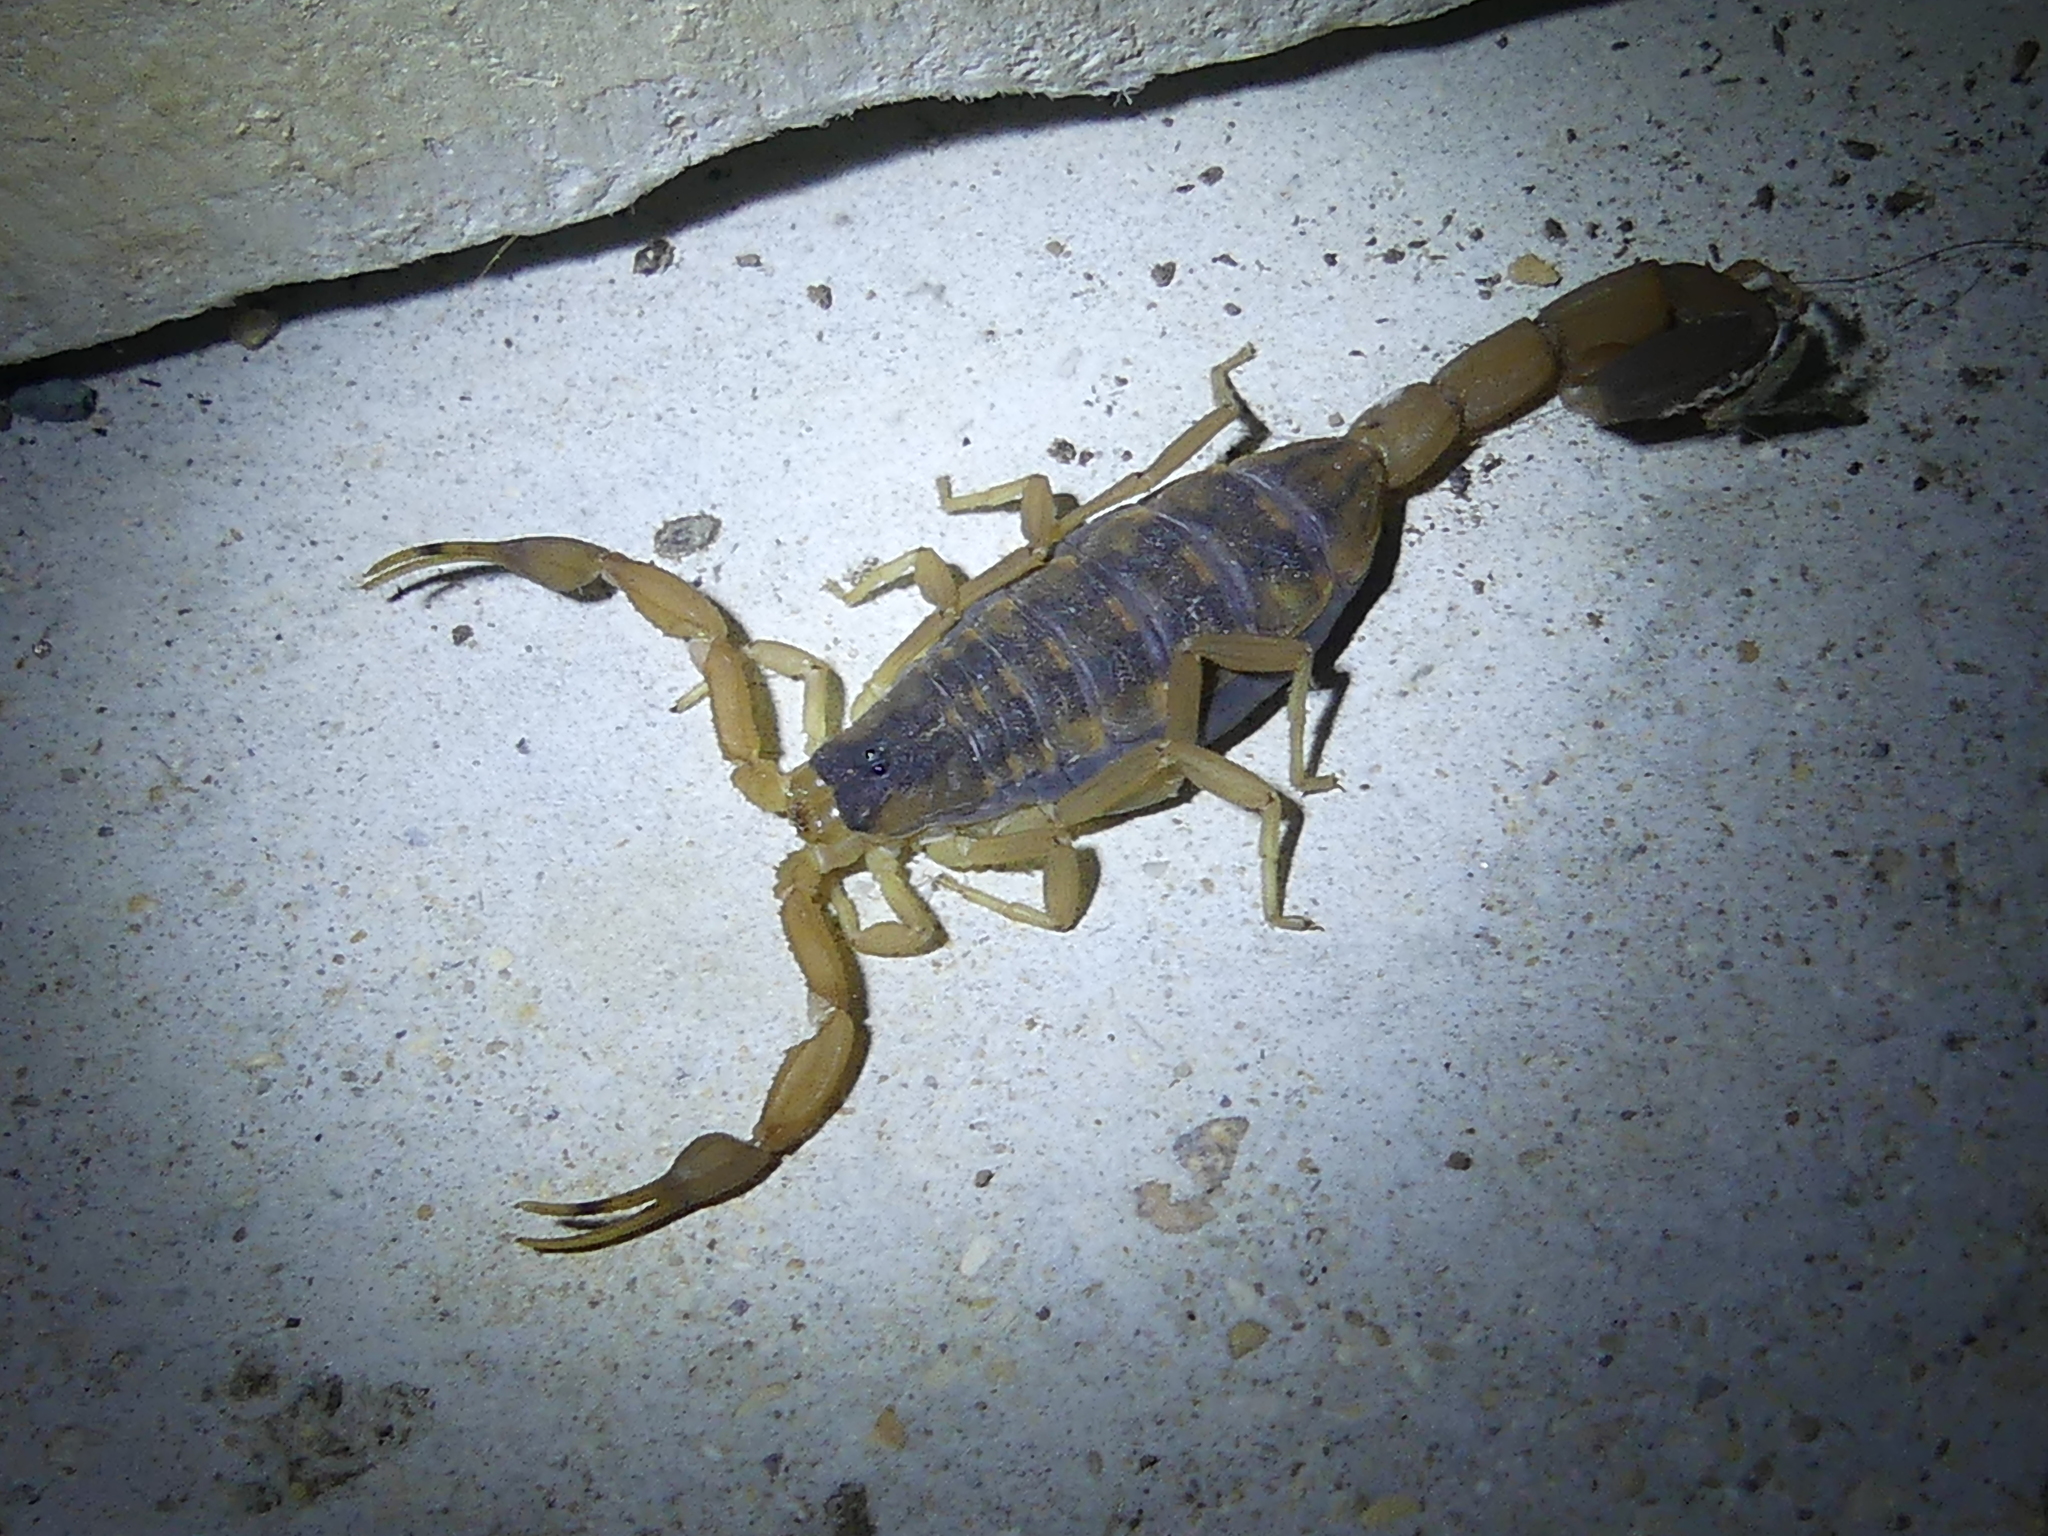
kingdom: Animalia
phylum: Arthropoda
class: Arachnida
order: Scorpiones
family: Buthidae
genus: Centruroides
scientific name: Centruroides vittatus
